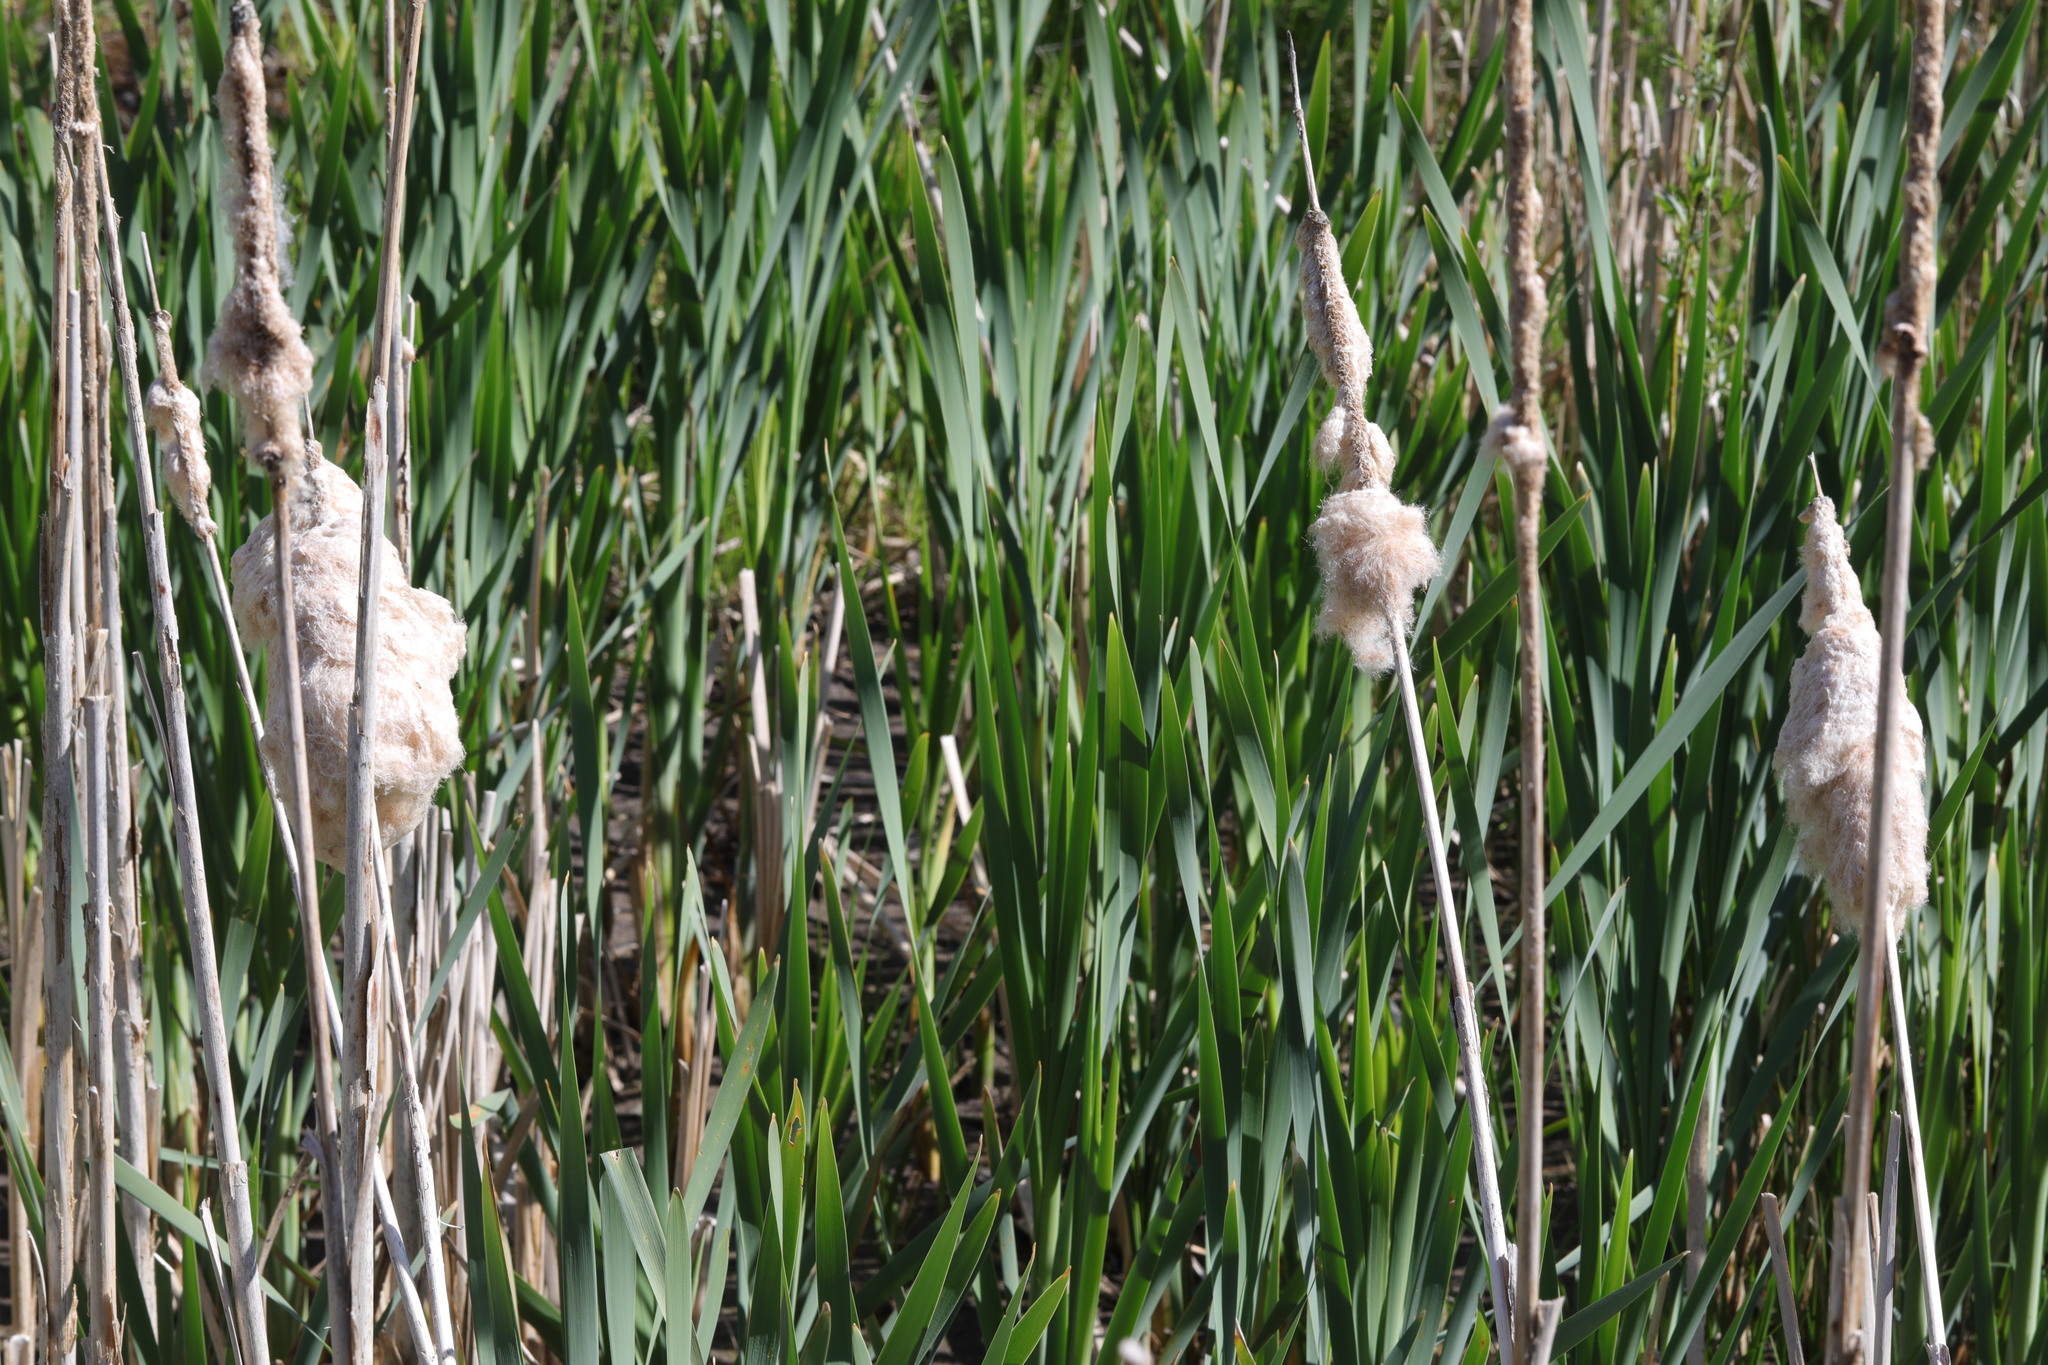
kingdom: Plantae
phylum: Tracheophyta
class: Liliopsida
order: Poales
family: Typhaceae
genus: Typha
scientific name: Typha latifolia
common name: Broadleaf cattail
